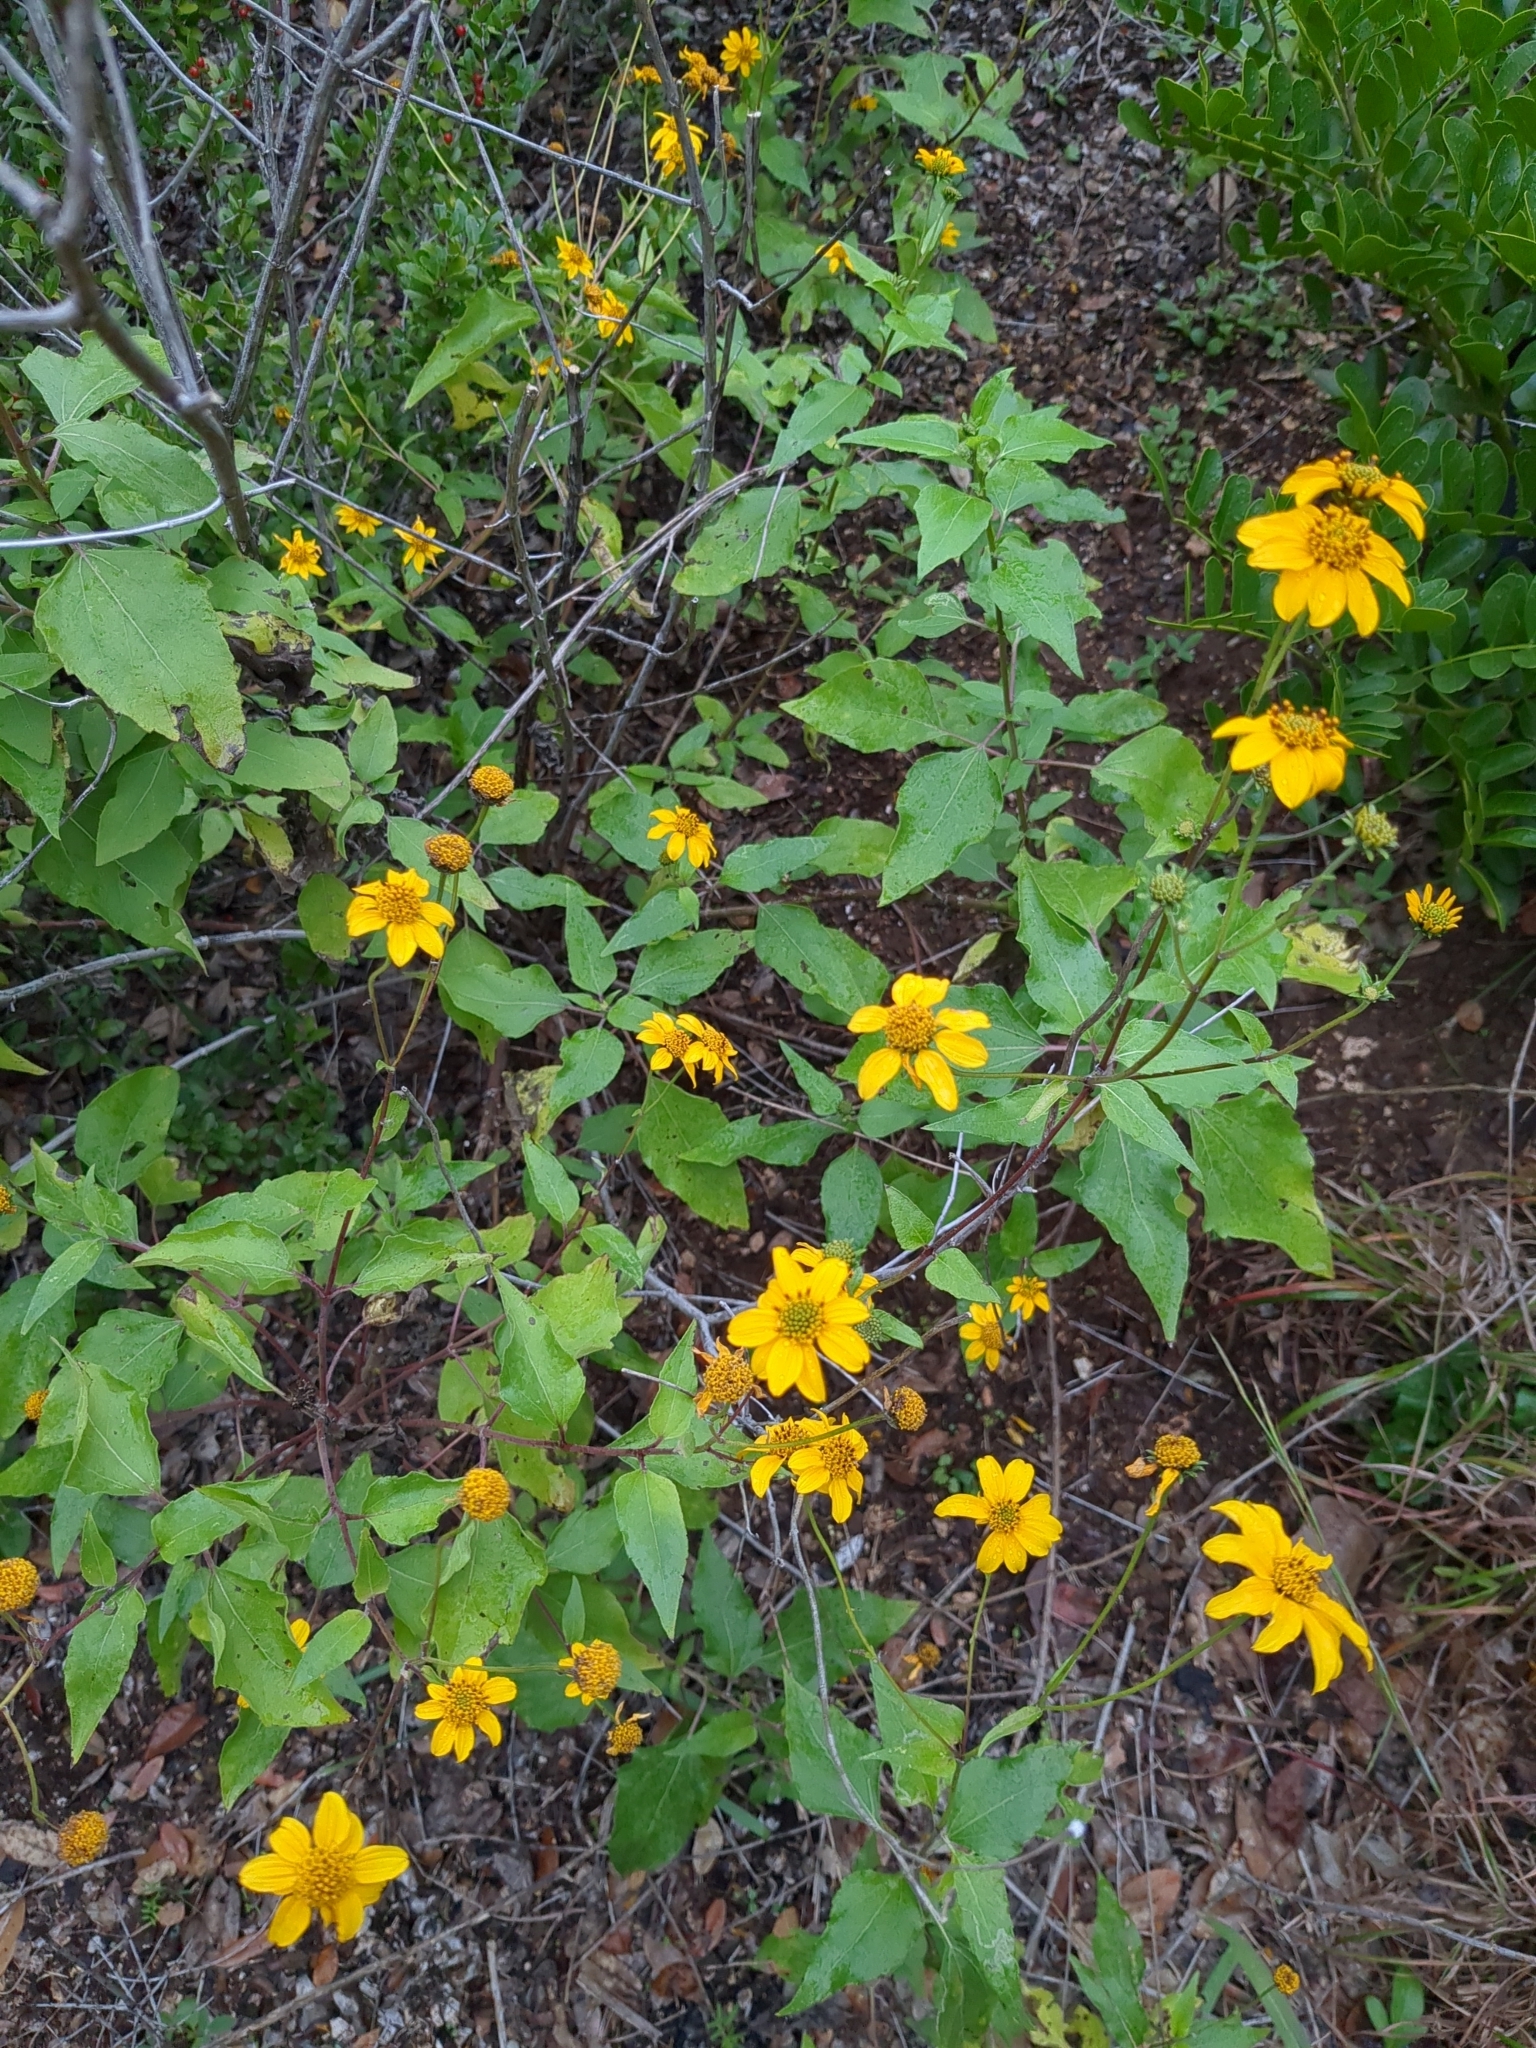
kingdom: Plantae
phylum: Tracheophyta
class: Magnoliopsida
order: Asterales
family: Asteraceae
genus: Viguiera
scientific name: Viguiera dentata
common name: Toothleaf
